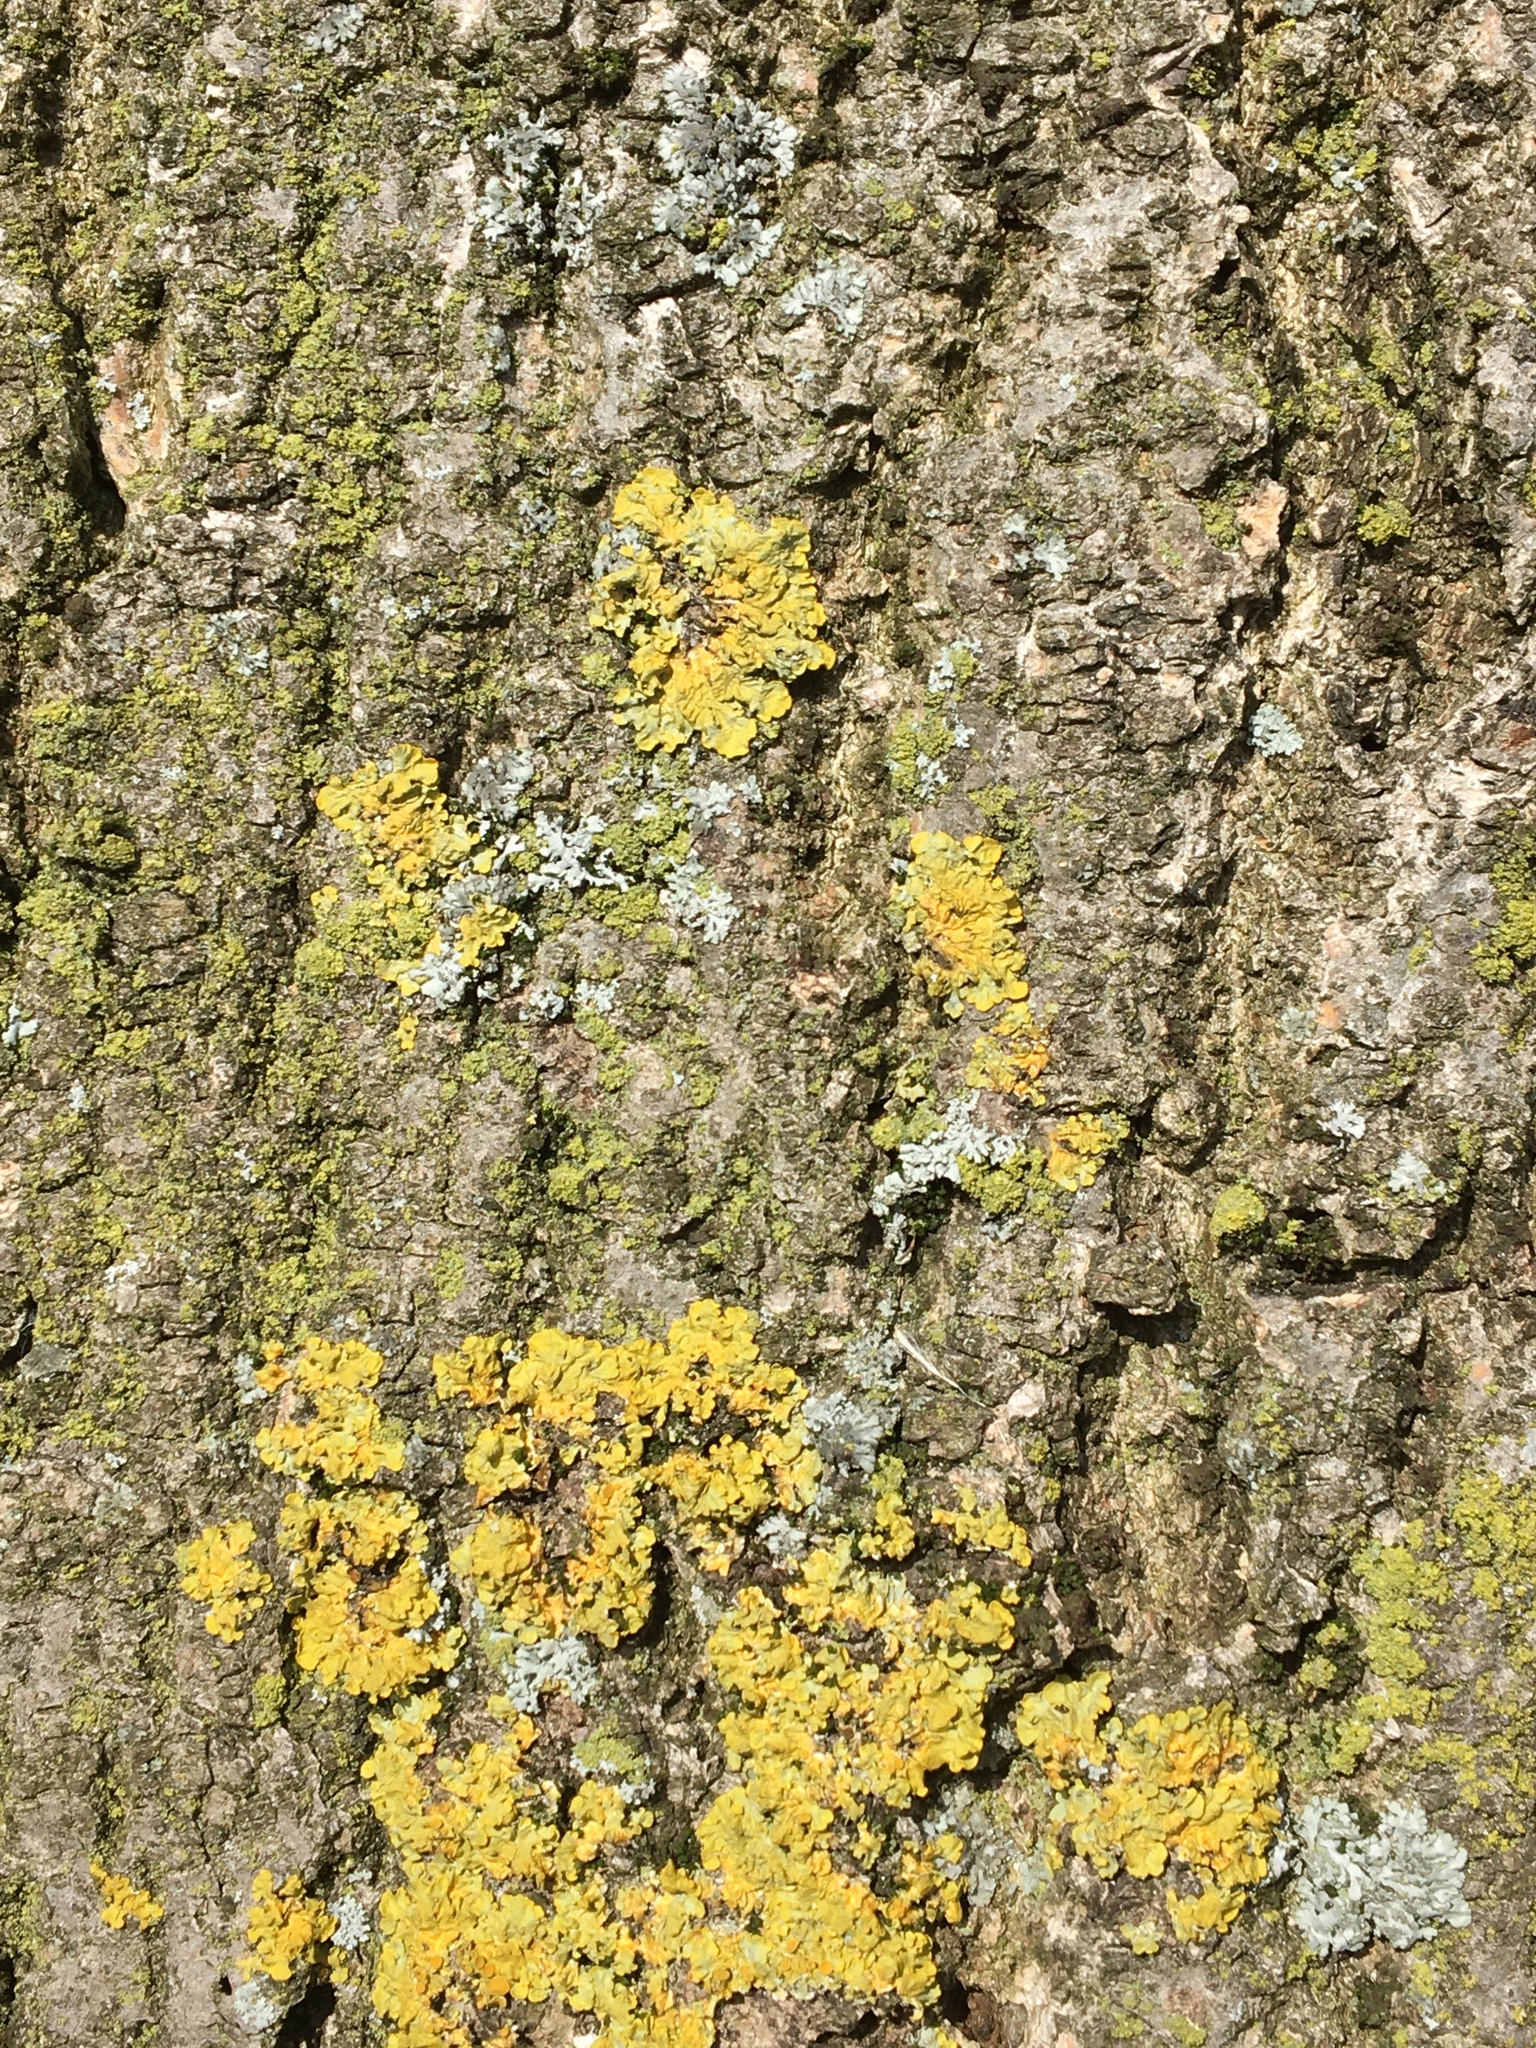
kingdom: Fungi
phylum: Ascomycota
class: Lecanoromycetes
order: Teloschistales
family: Teloschistaceae
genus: Xanthoria
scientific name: Xanthoria parietina
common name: Common orange lichen
